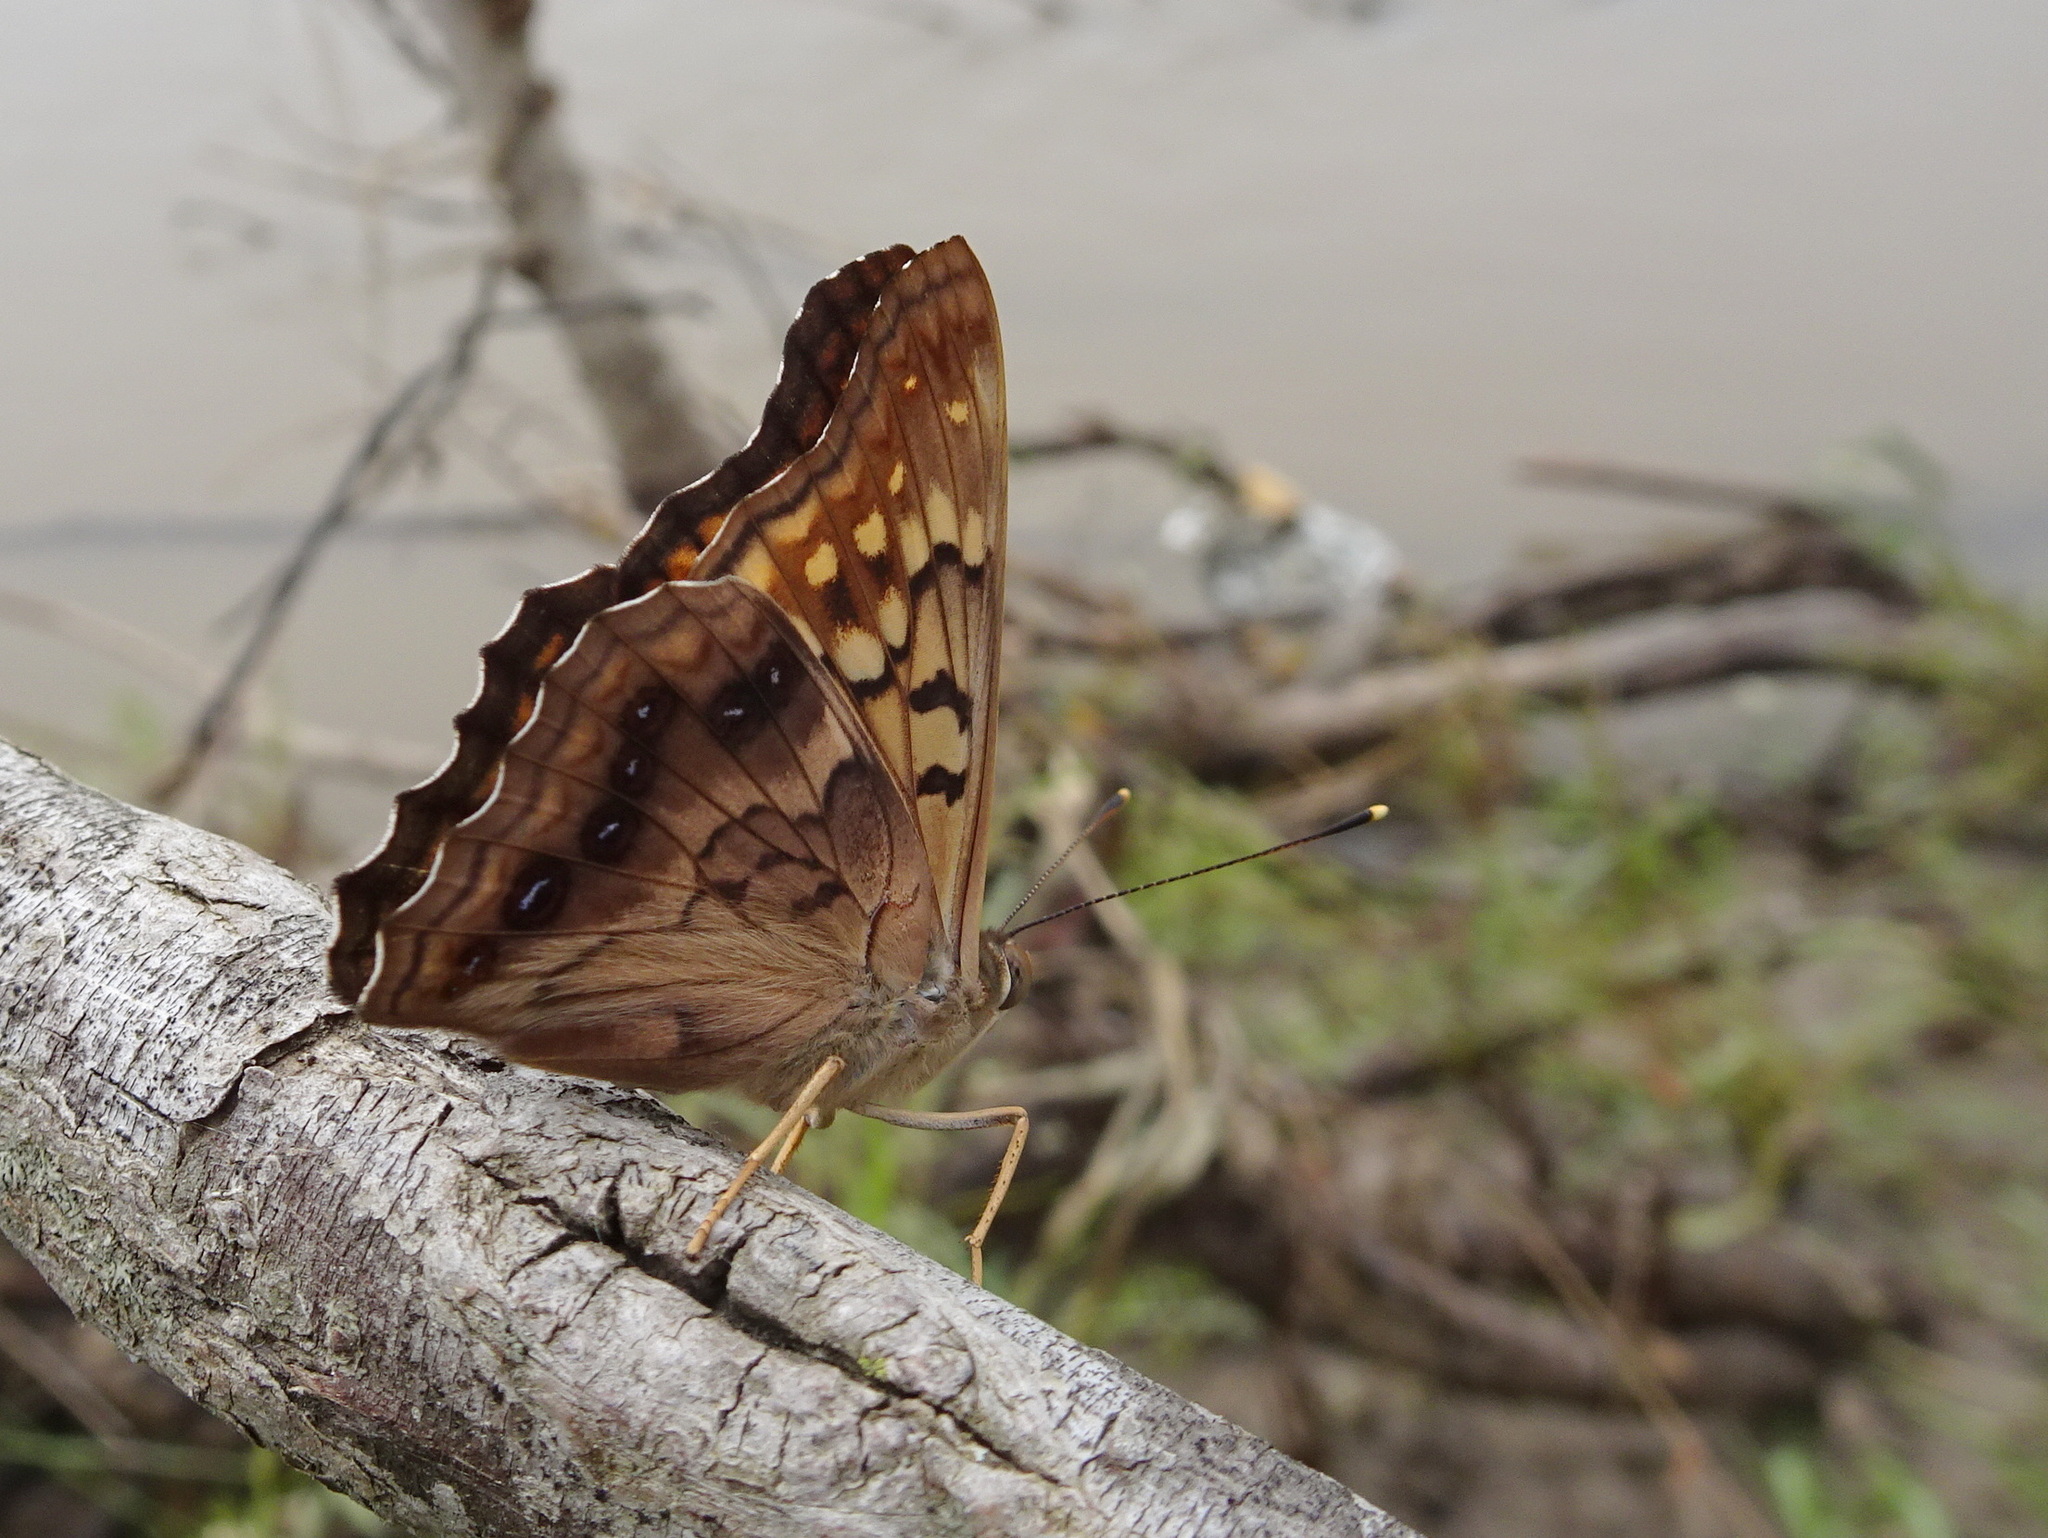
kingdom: Animalia
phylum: Arthropoda
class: Insecta
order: Lepidoptera
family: Nymphalidae
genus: Asterocampa
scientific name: Asterocampa clyton
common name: Tawny emperor
